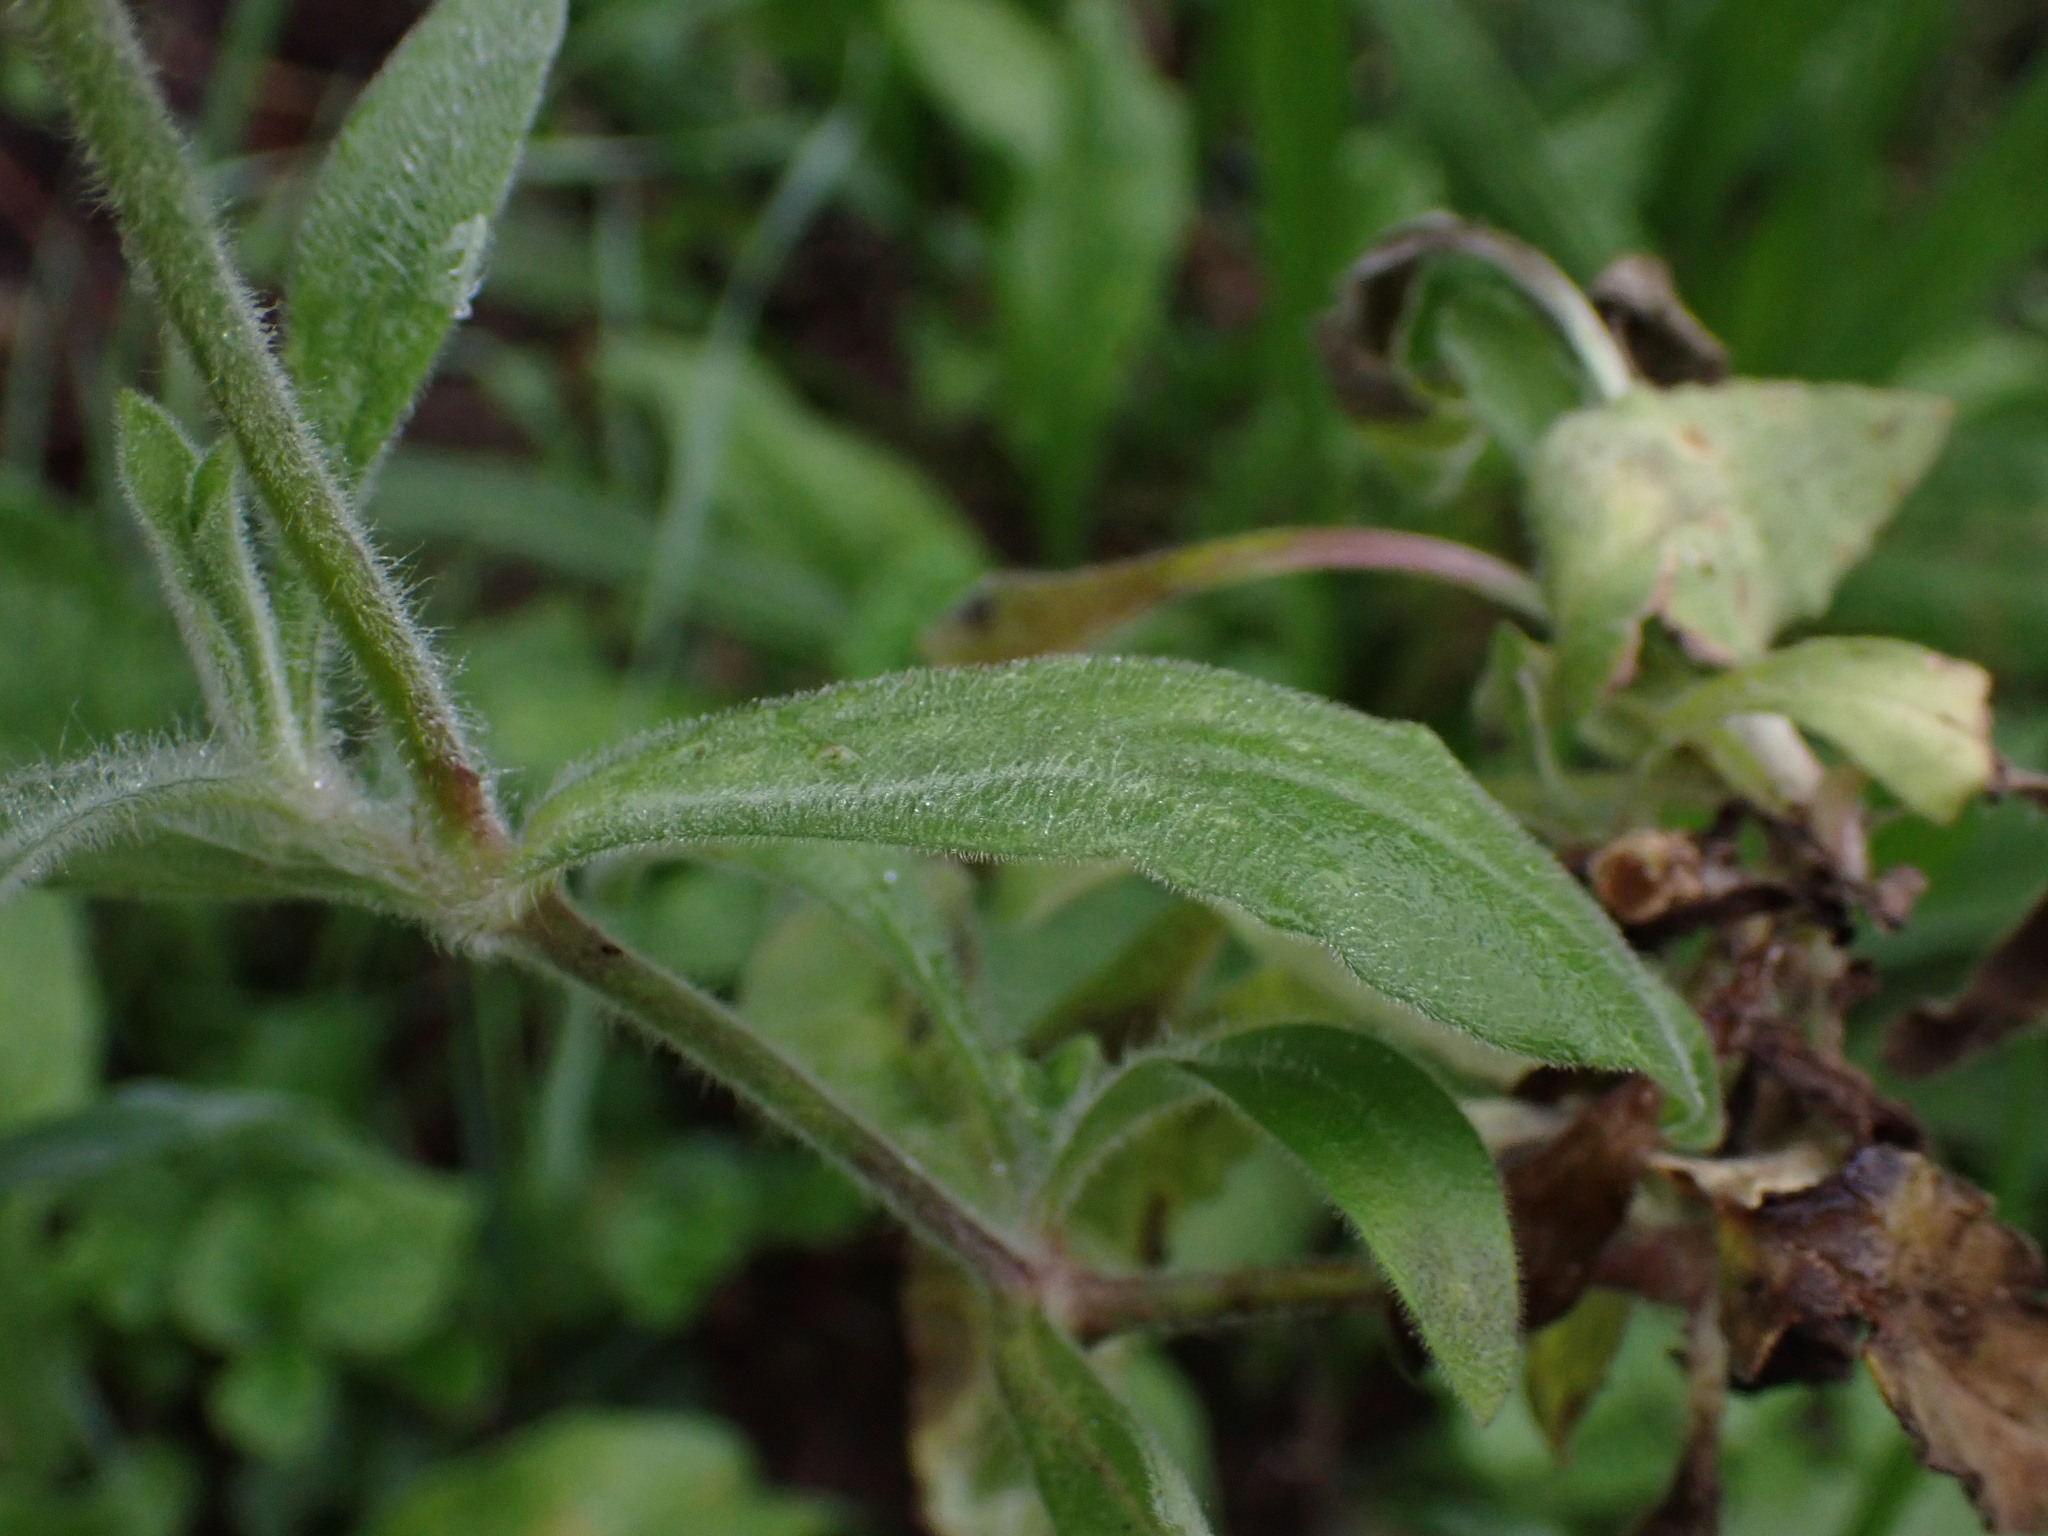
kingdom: Plantae
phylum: Tracheophyta
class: Magnoliopsida
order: Caryophyllales
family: Caryophyllaceae
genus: Silene
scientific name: Silene latifolia
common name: White campion
